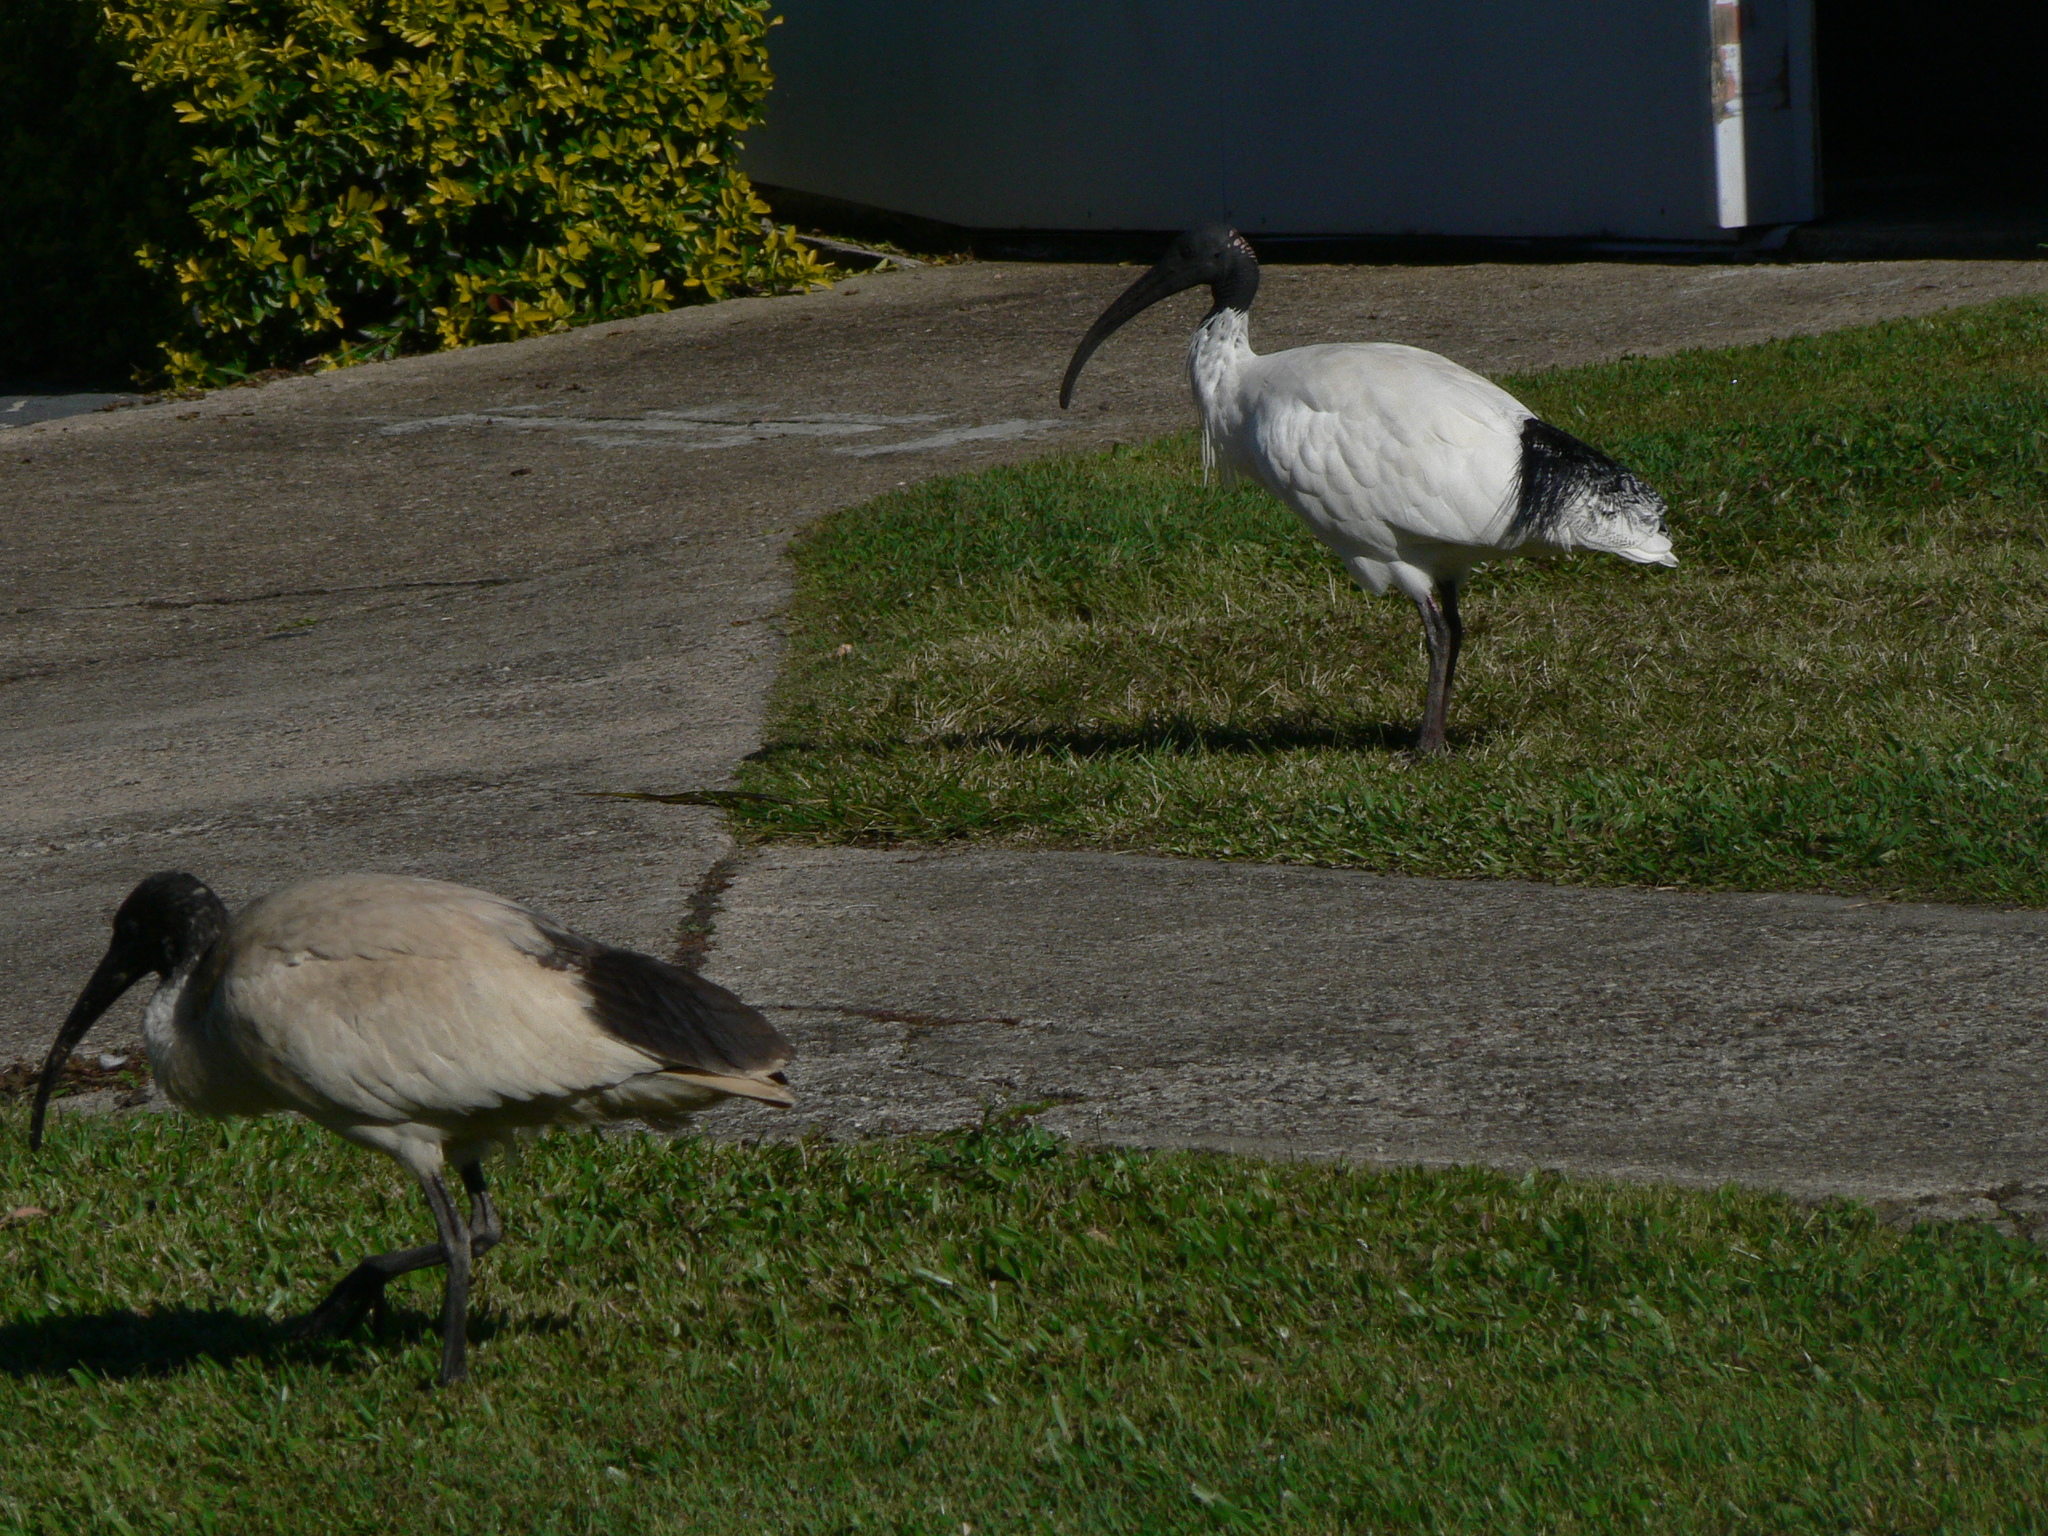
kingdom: Animalia
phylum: Chordata
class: Aves
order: Pelecaniformes
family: Threskiornithidae
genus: Threskiornis
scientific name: Threskiornis molucca
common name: Australian white ibis
